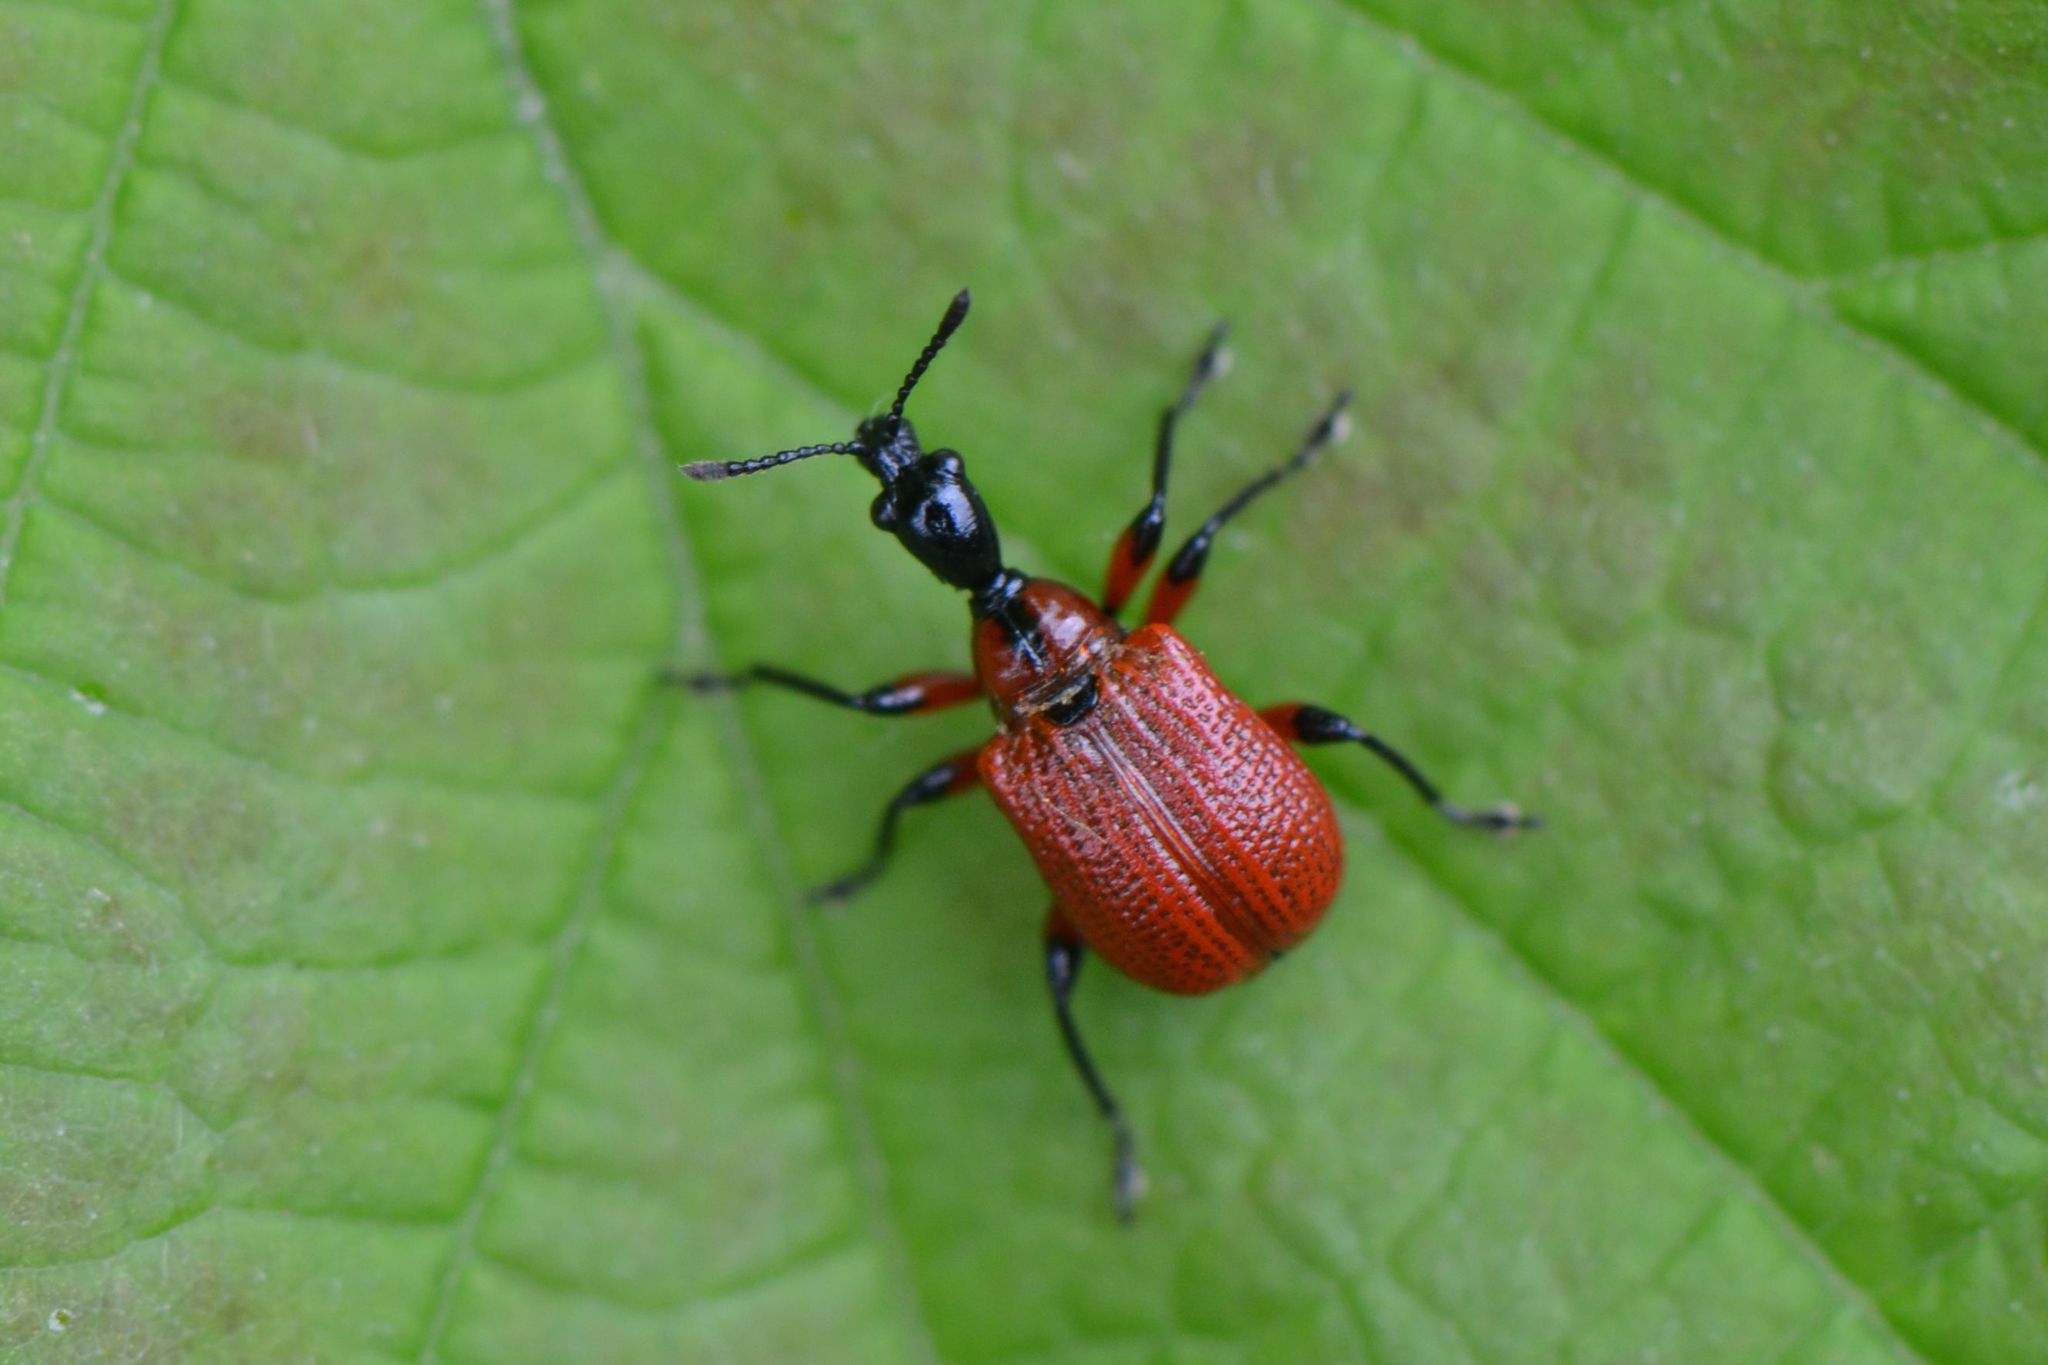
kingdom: Animalia
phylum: Arthropoda
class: Insecta
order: Coleoptera
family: Attelabidae
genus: Apoderus
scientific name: Apoderus coryli
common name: Hazel leaf roller
